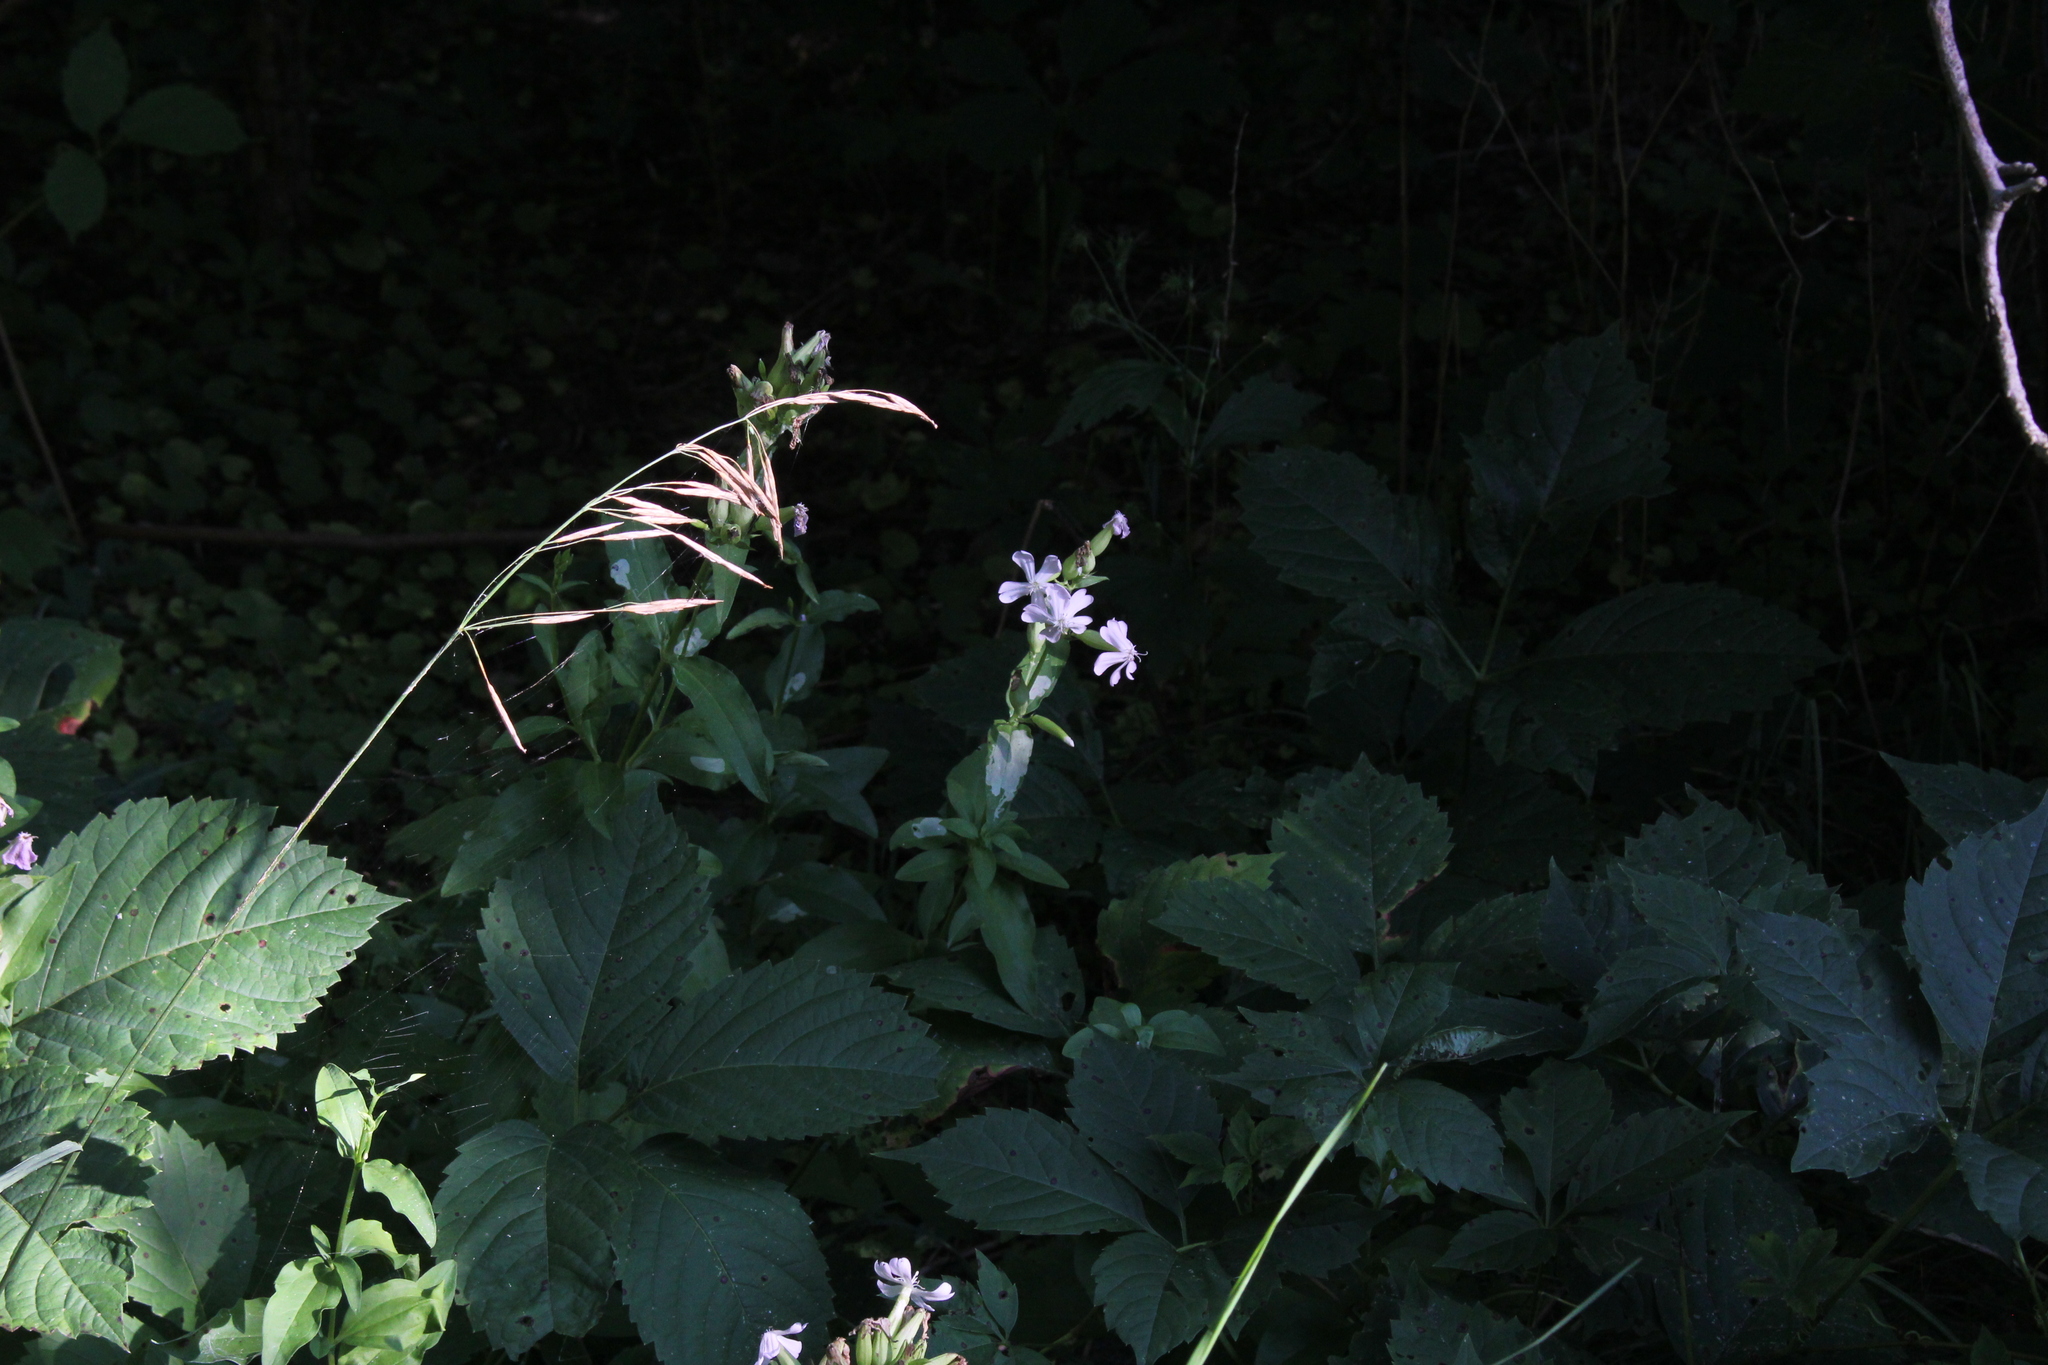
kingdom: Plantae
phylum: Tracheophyta
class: Magnoliopsida
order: Caryophyllales
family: Caryophyllaceae
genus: Saponaria
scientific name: Saponaria officinalis
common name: Soapwort
